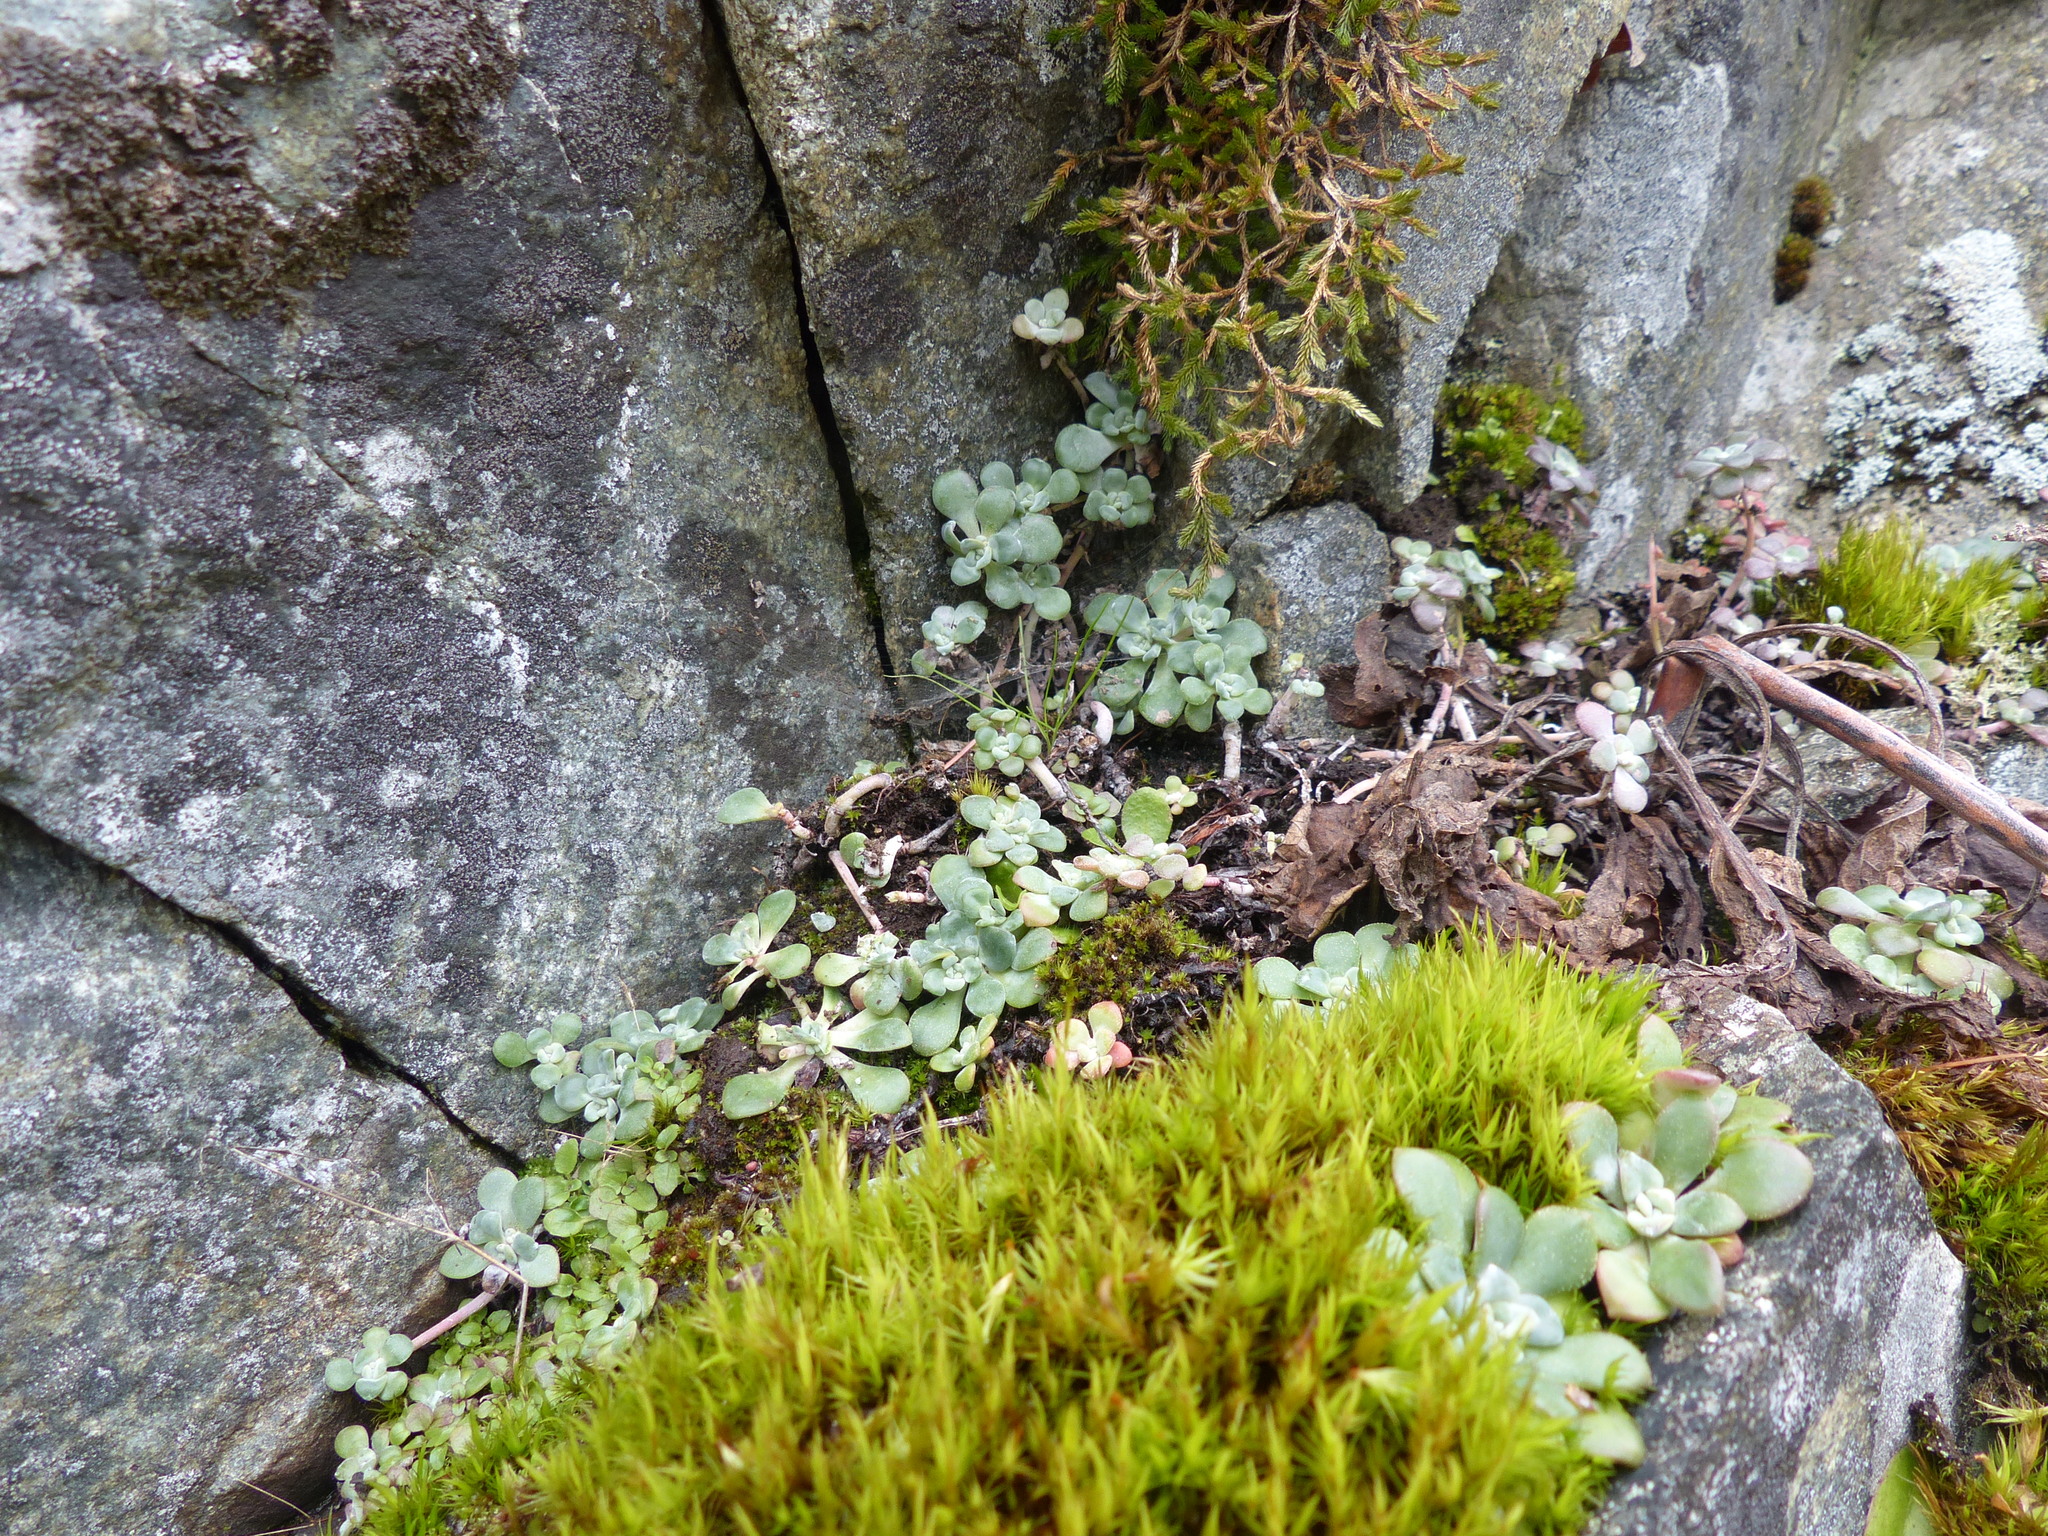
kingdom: Plantae
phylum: Tracheophyta
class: Magnoliopsida
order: Saxifragales
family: Crassulaceae
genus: Sedum
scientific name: Sedum spathulifolium
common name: Colorado stonecrop
